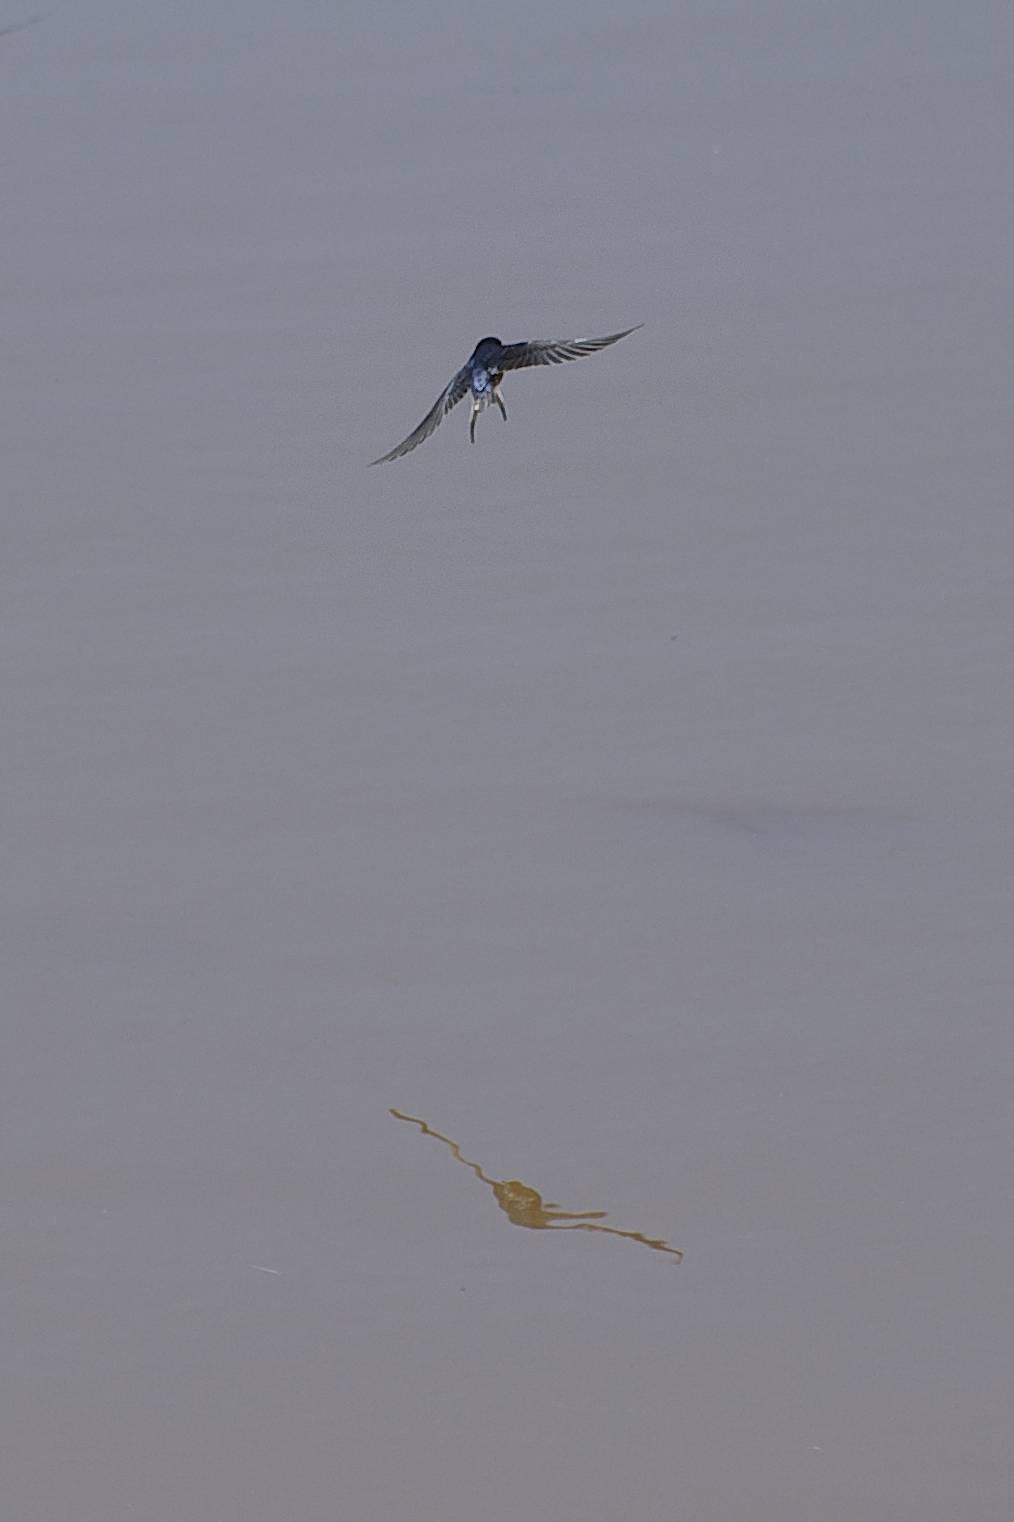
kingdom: Animalia
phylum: Chordata
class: Aves
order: Passeriformes
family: Hirundinidae
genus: Hirundo
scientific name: Hirundo rustica
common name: Barn swallow
